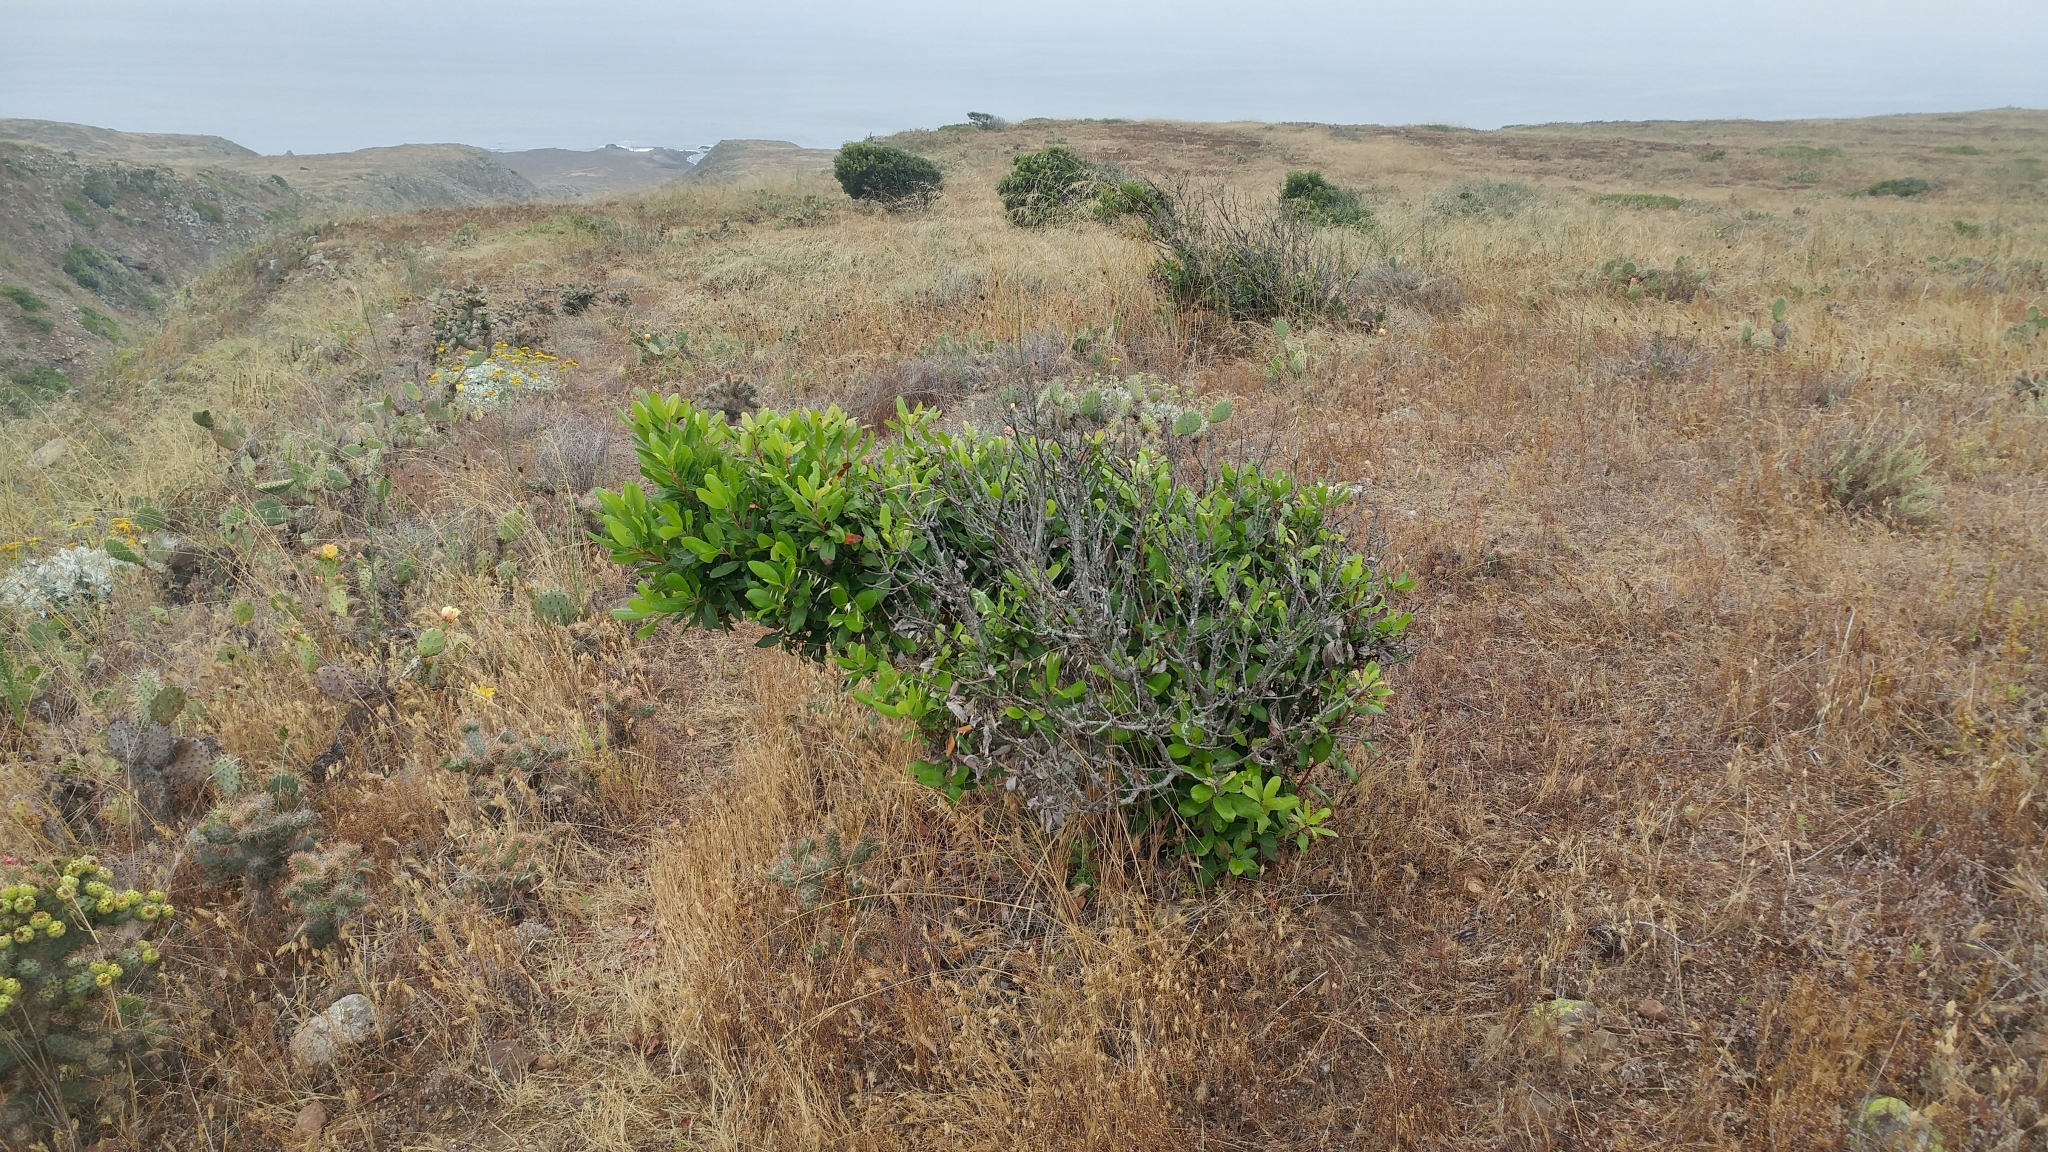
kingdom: Plantae
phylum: Tracheophyta
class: Magnoliopsida
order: Rosales
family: Rosaceae
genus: Heteromeles
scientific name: Heteromeles arbutifolia
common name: California-holly
